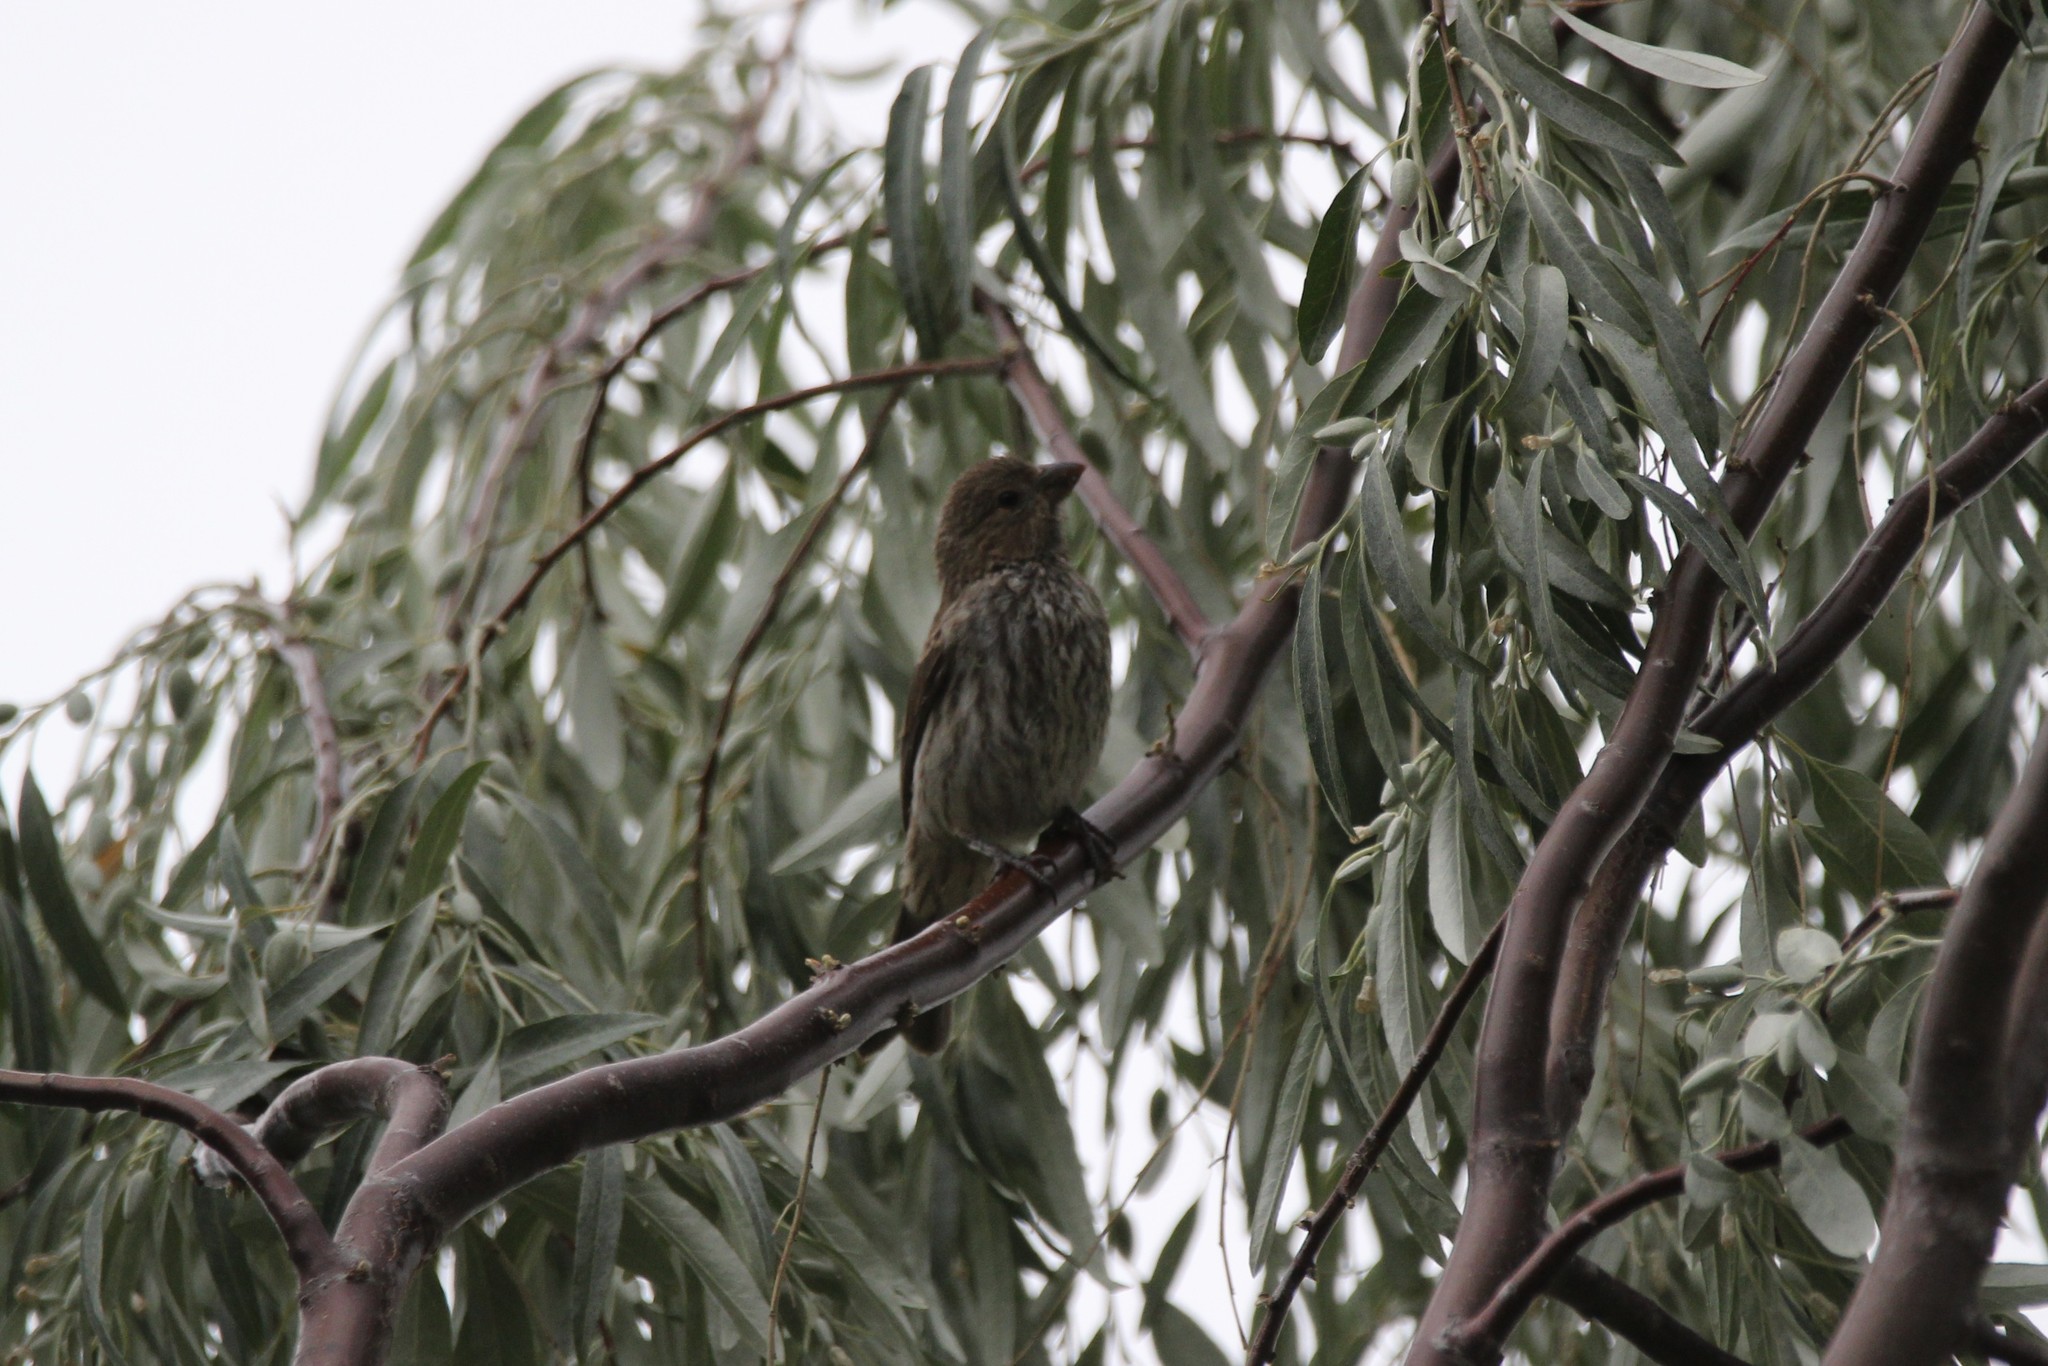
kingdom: Animalia
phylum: Chordata
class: Aves
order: Passeriformes
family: Fringillidae
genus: Haemorhous
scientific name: Haemorhous mexicanus
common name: House finch
